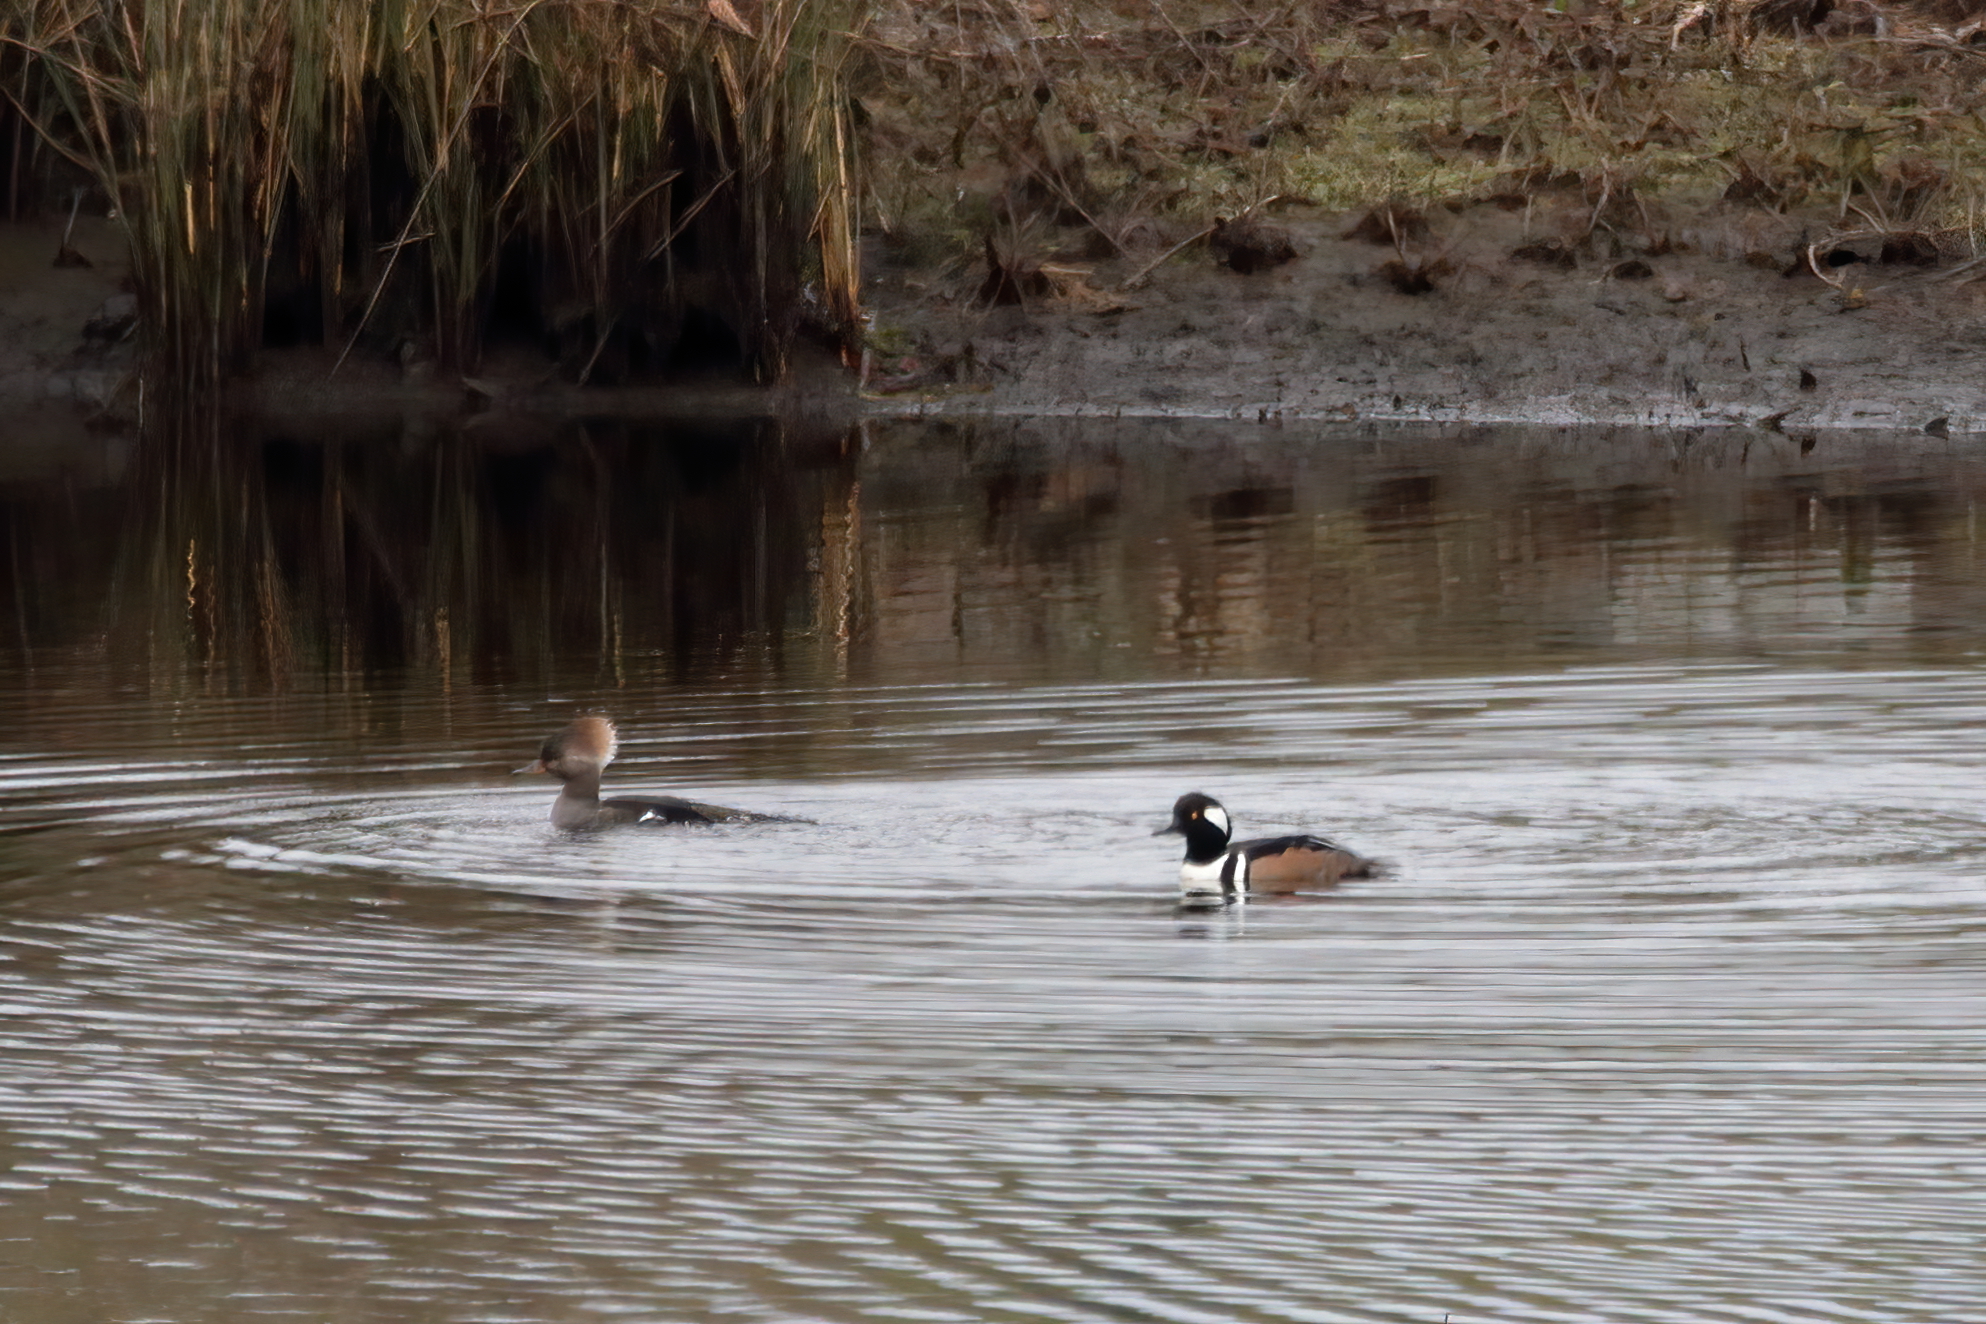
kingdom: Animalia
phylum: Chordata
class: Aves
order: Anseriformes
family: Anatidae
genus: Lophodytes
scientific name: Lophodytes cucullatus
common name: Hooded merganser
